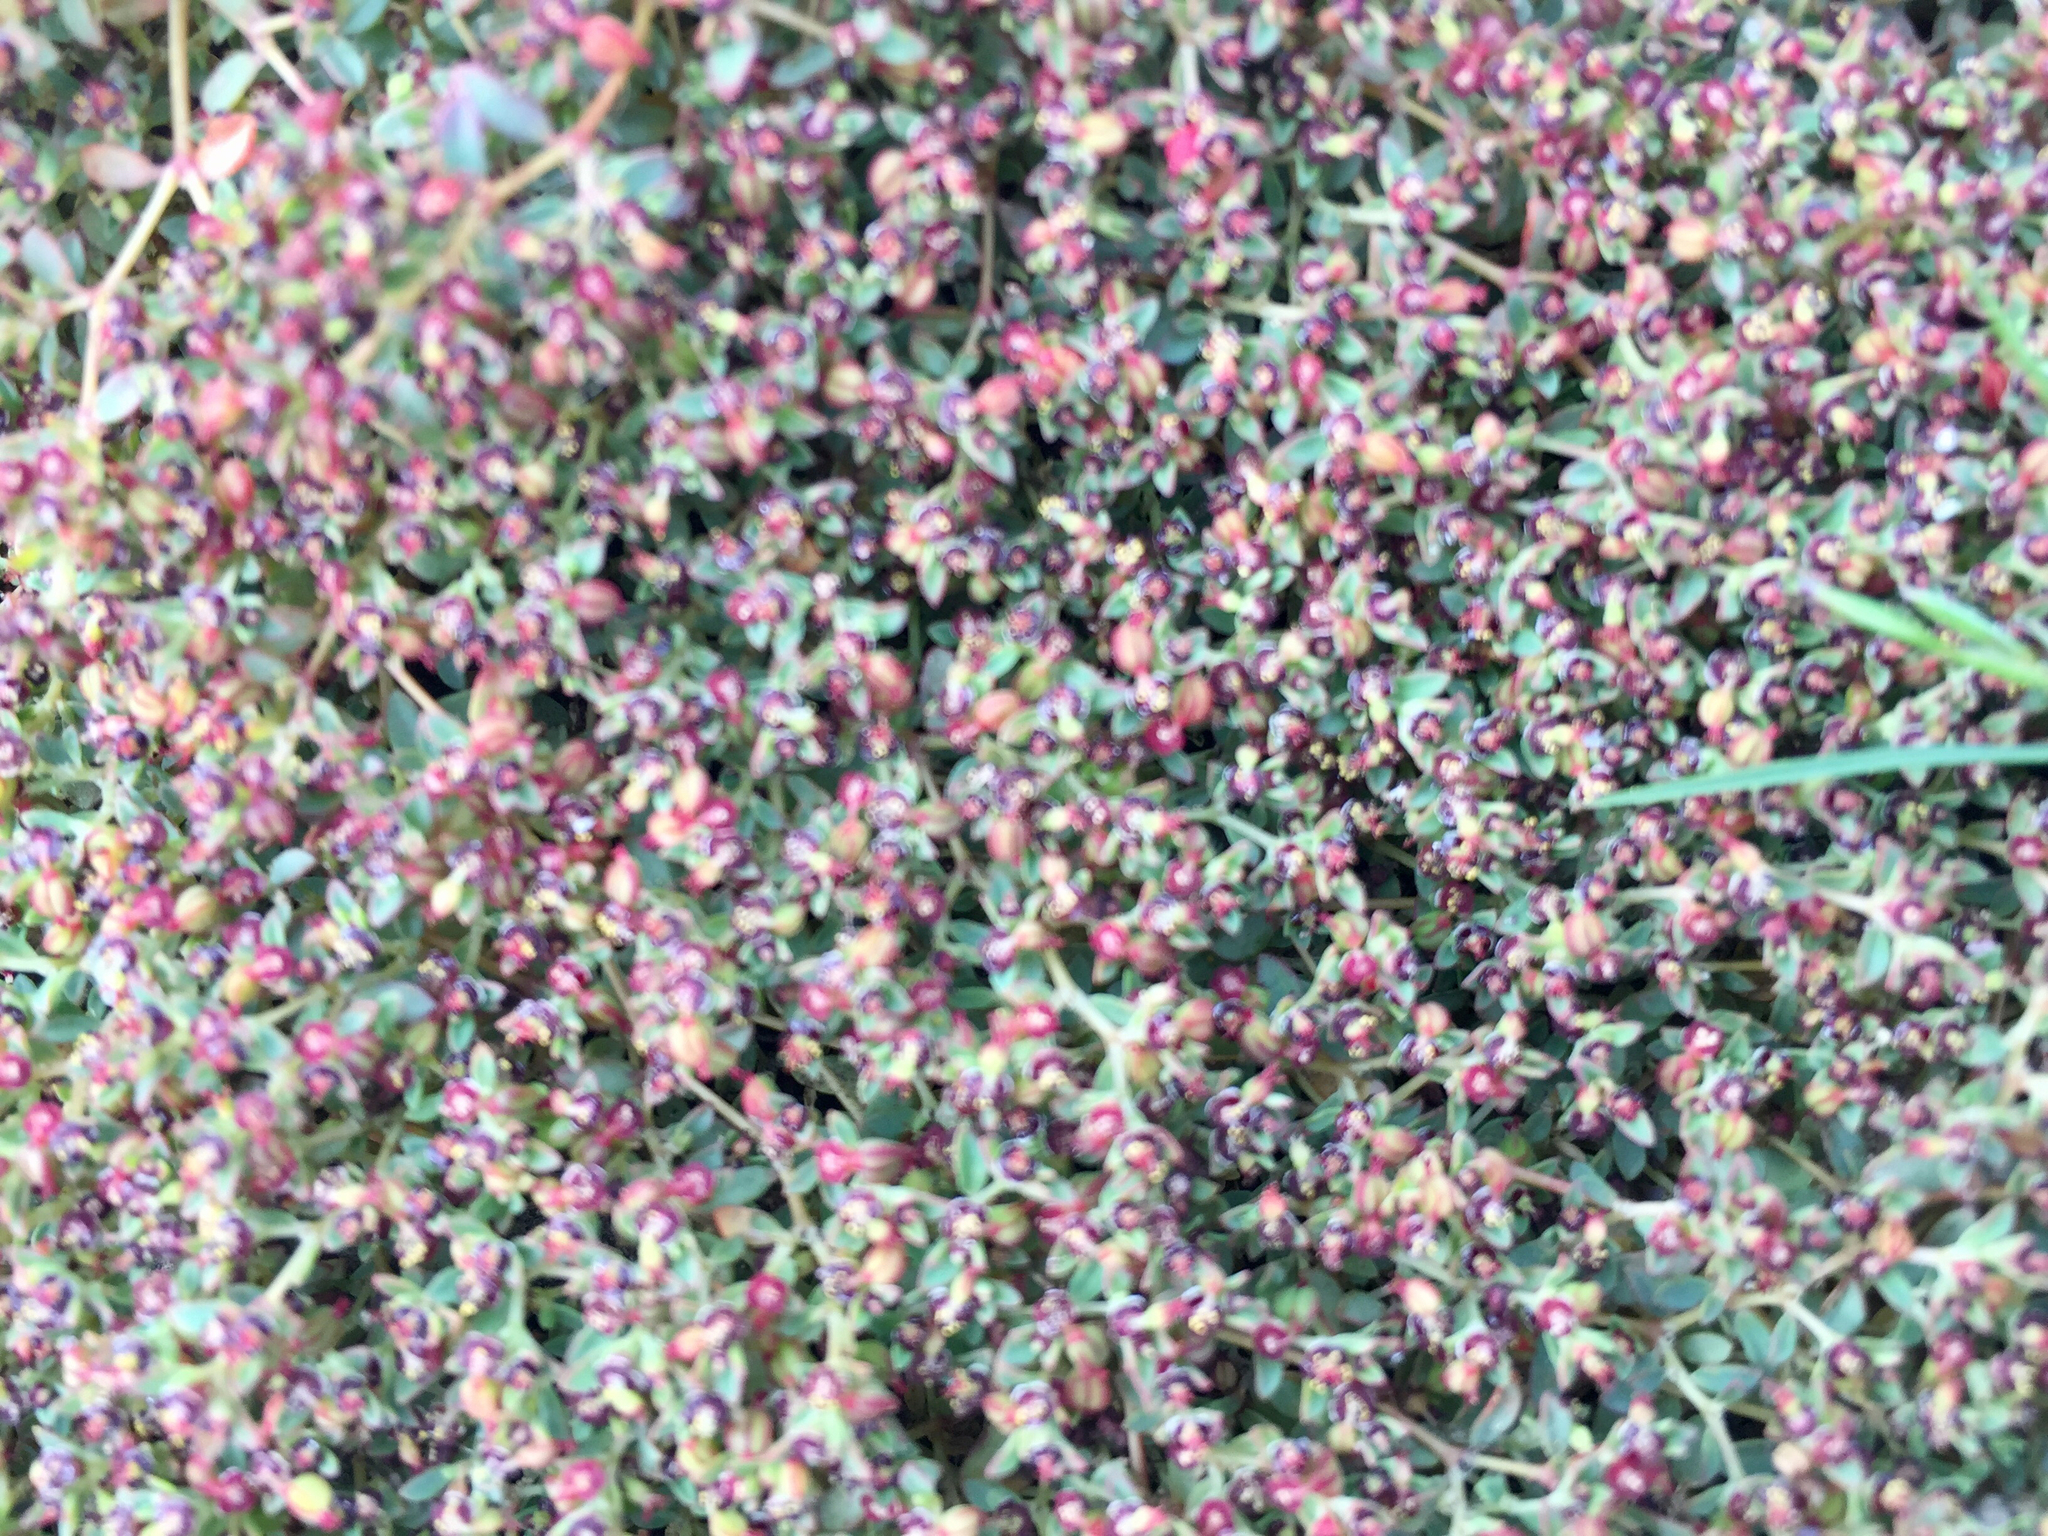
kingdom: Plantae
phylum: Tracheophyta
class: Magnoliopsida
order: Malpighiales
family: Euphorbiaceae
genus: Euphorbia
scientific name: Euphorbia polycarpa
